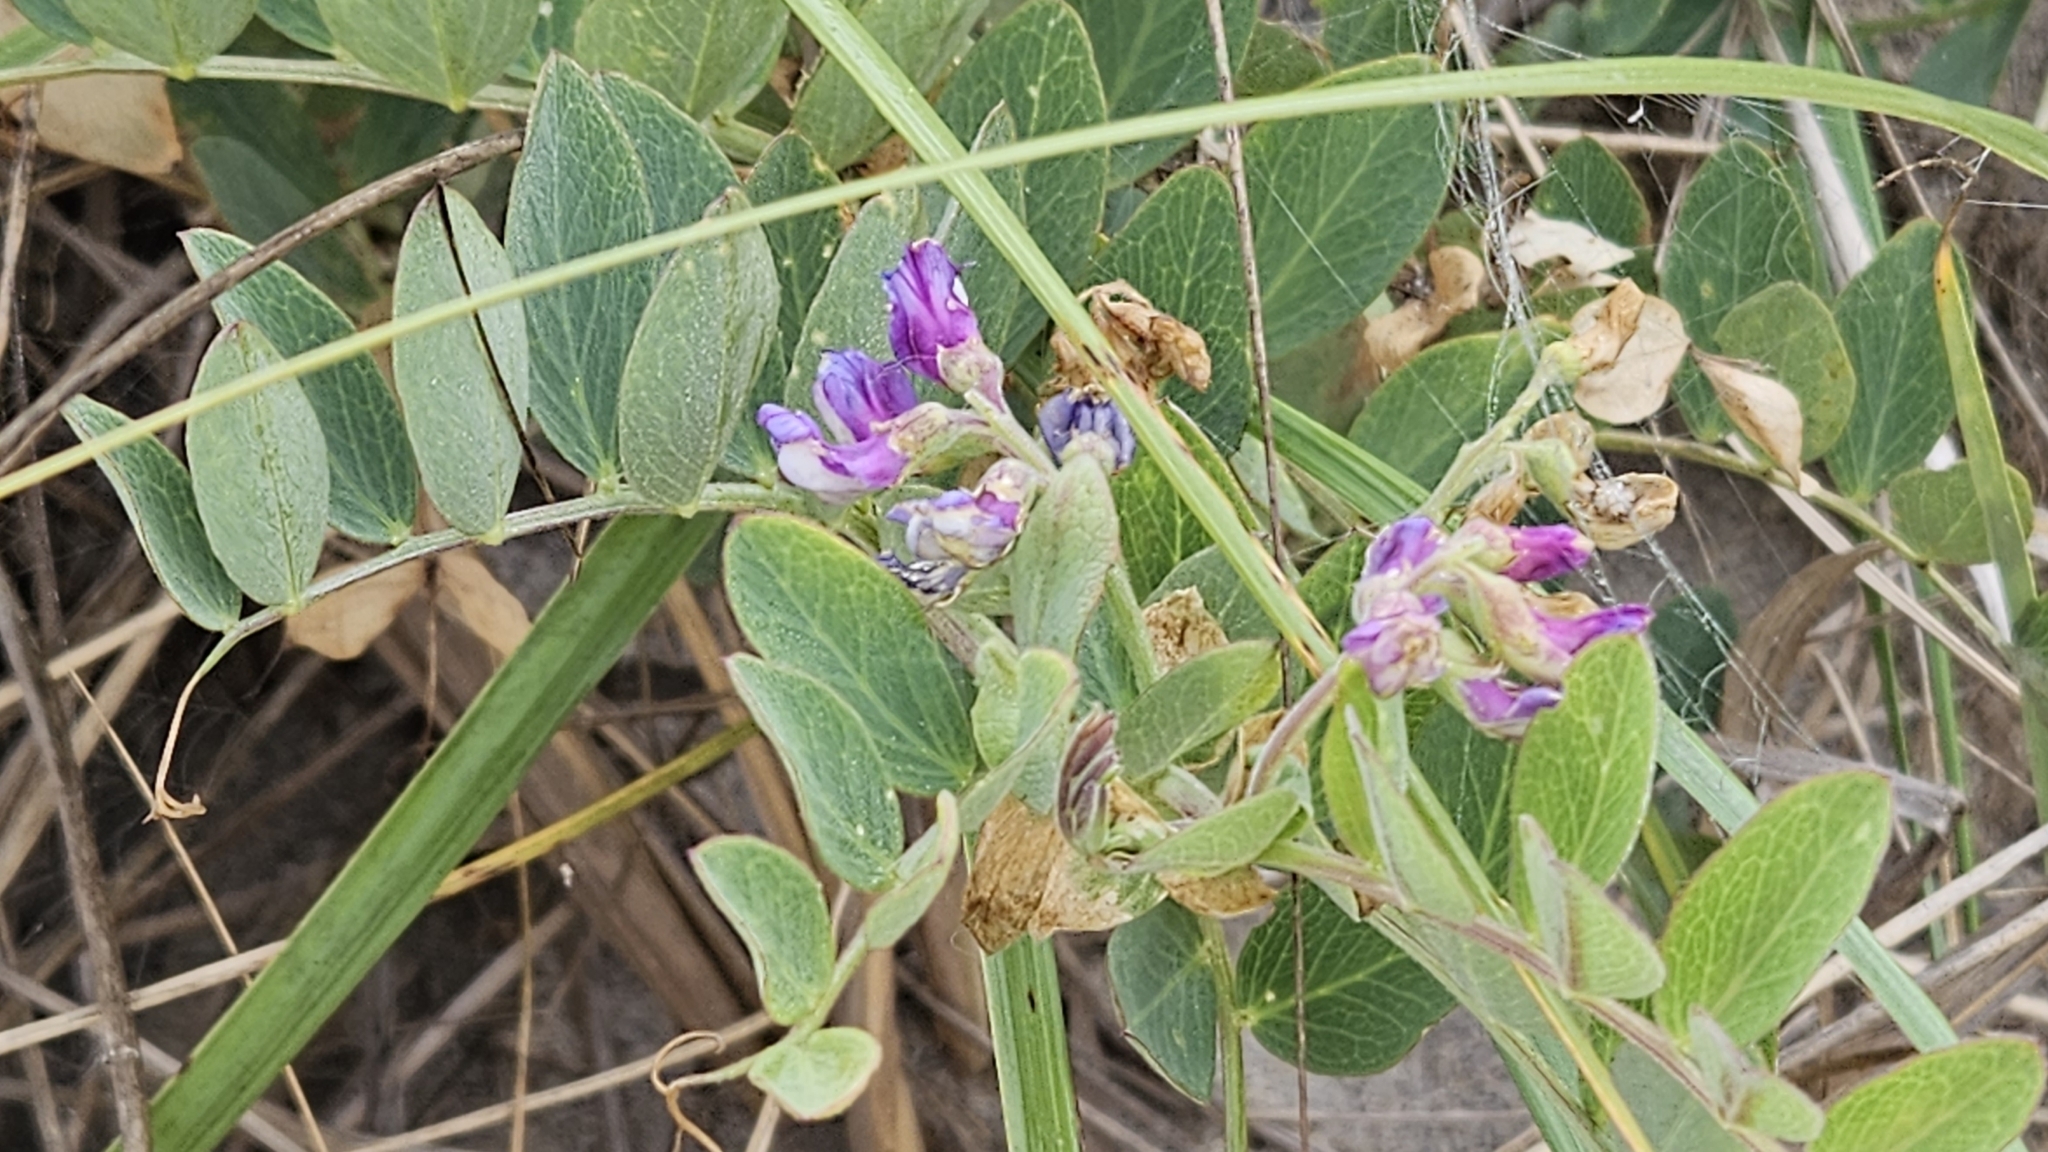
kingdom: Plantae
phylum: Tracheophyta
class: Magnoliopsida
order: Fabales
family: Fabaceae
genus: Lathyrus
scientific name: Lathyrus japonicus
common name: Sea pea
